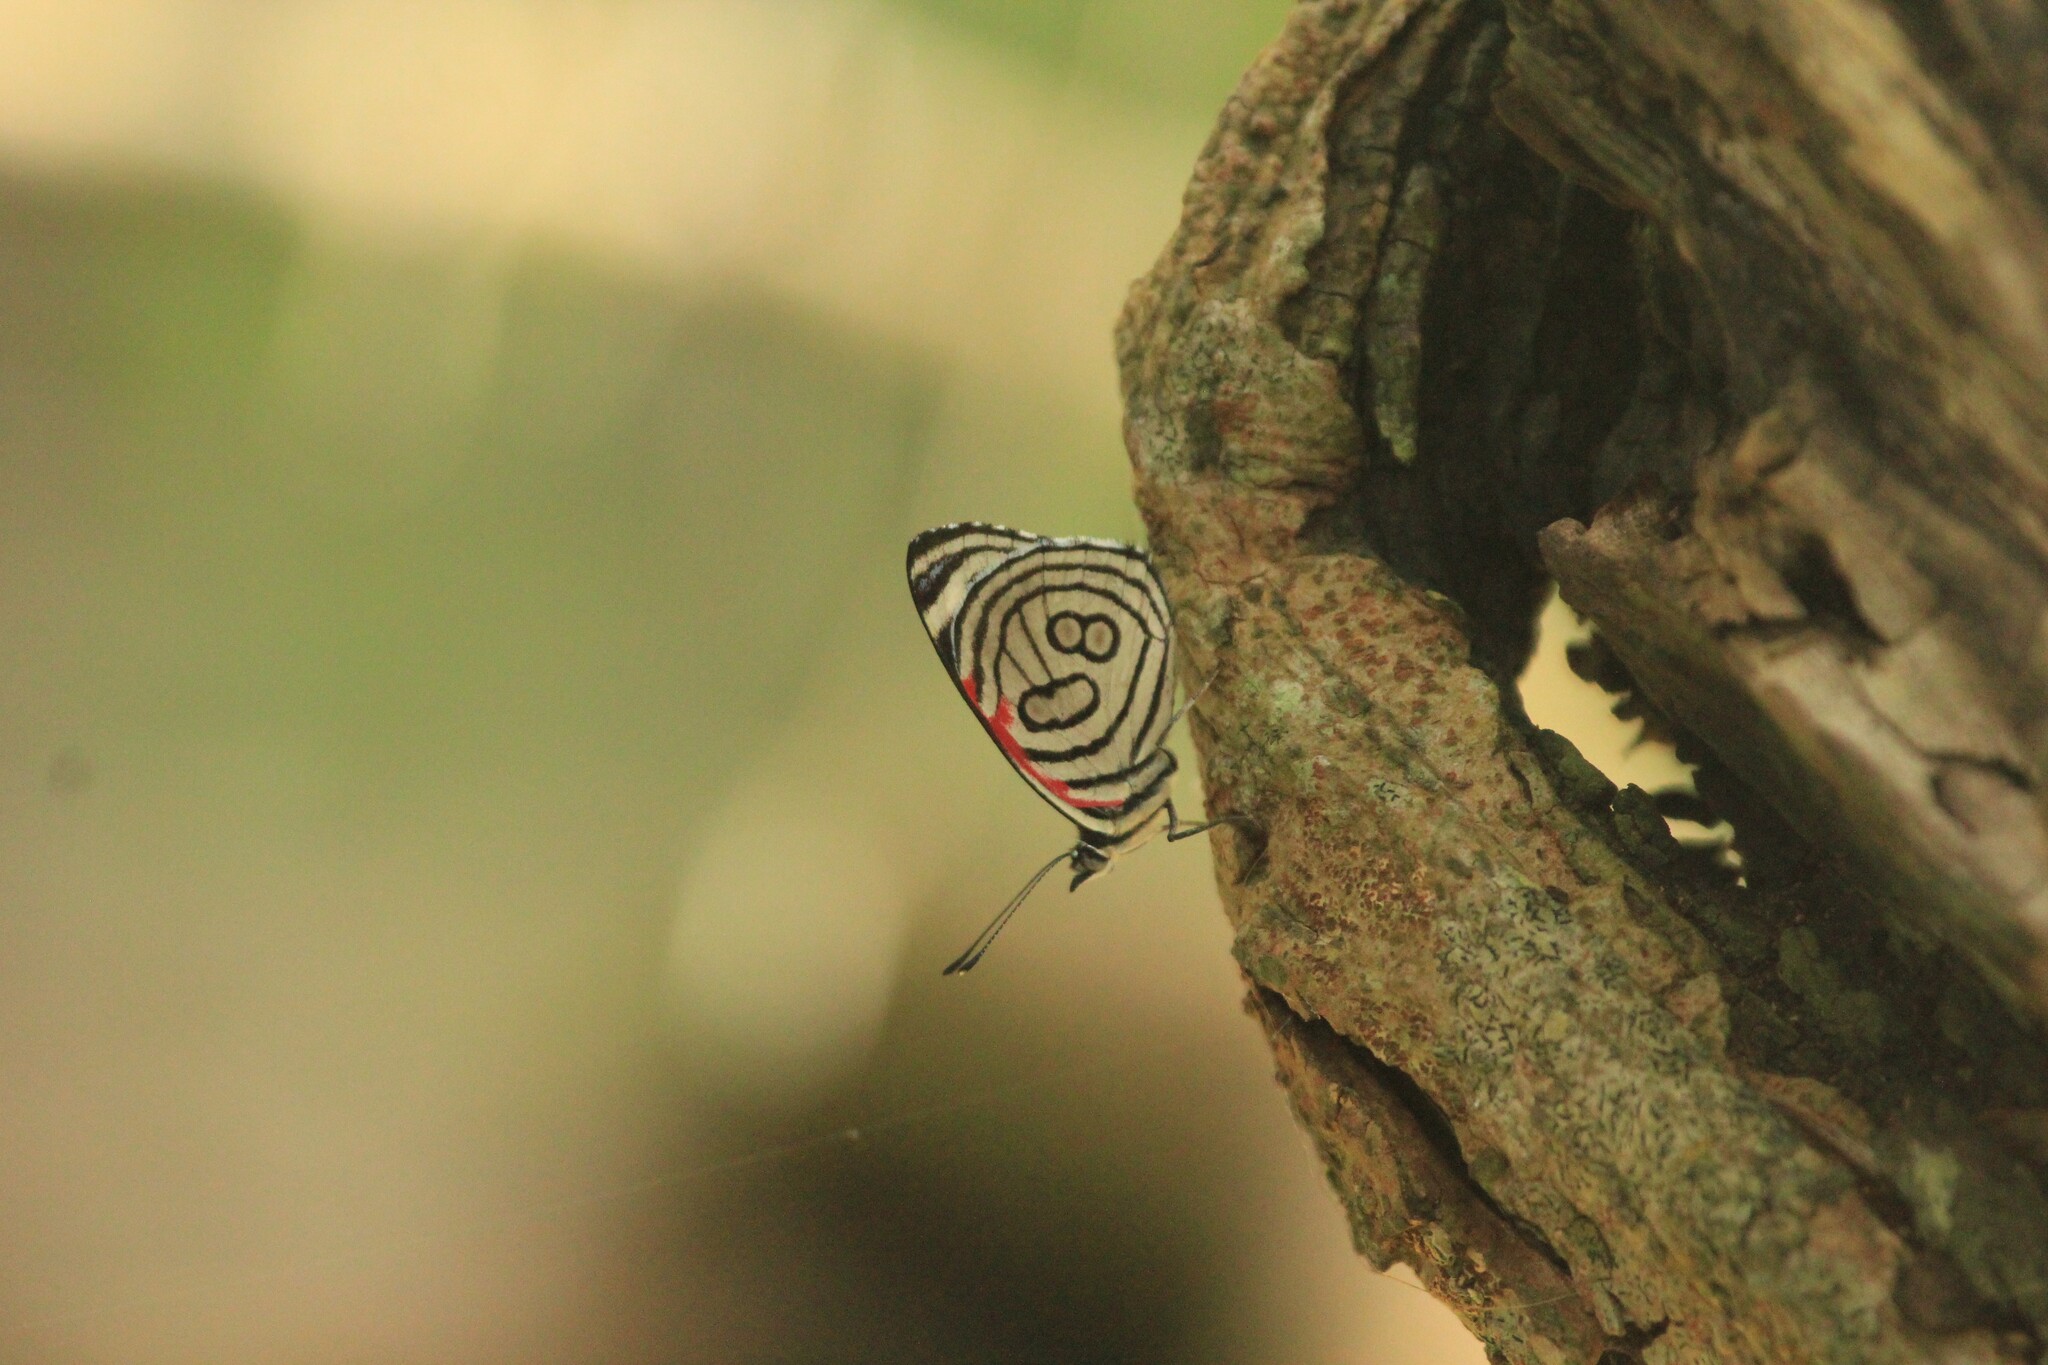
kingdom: Animalia
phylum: Arthropoda
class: Insecta
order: Lepidoptera
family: Nymphalidae
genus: Diaethria
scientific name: Diaethria candrena
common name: Number eighty
